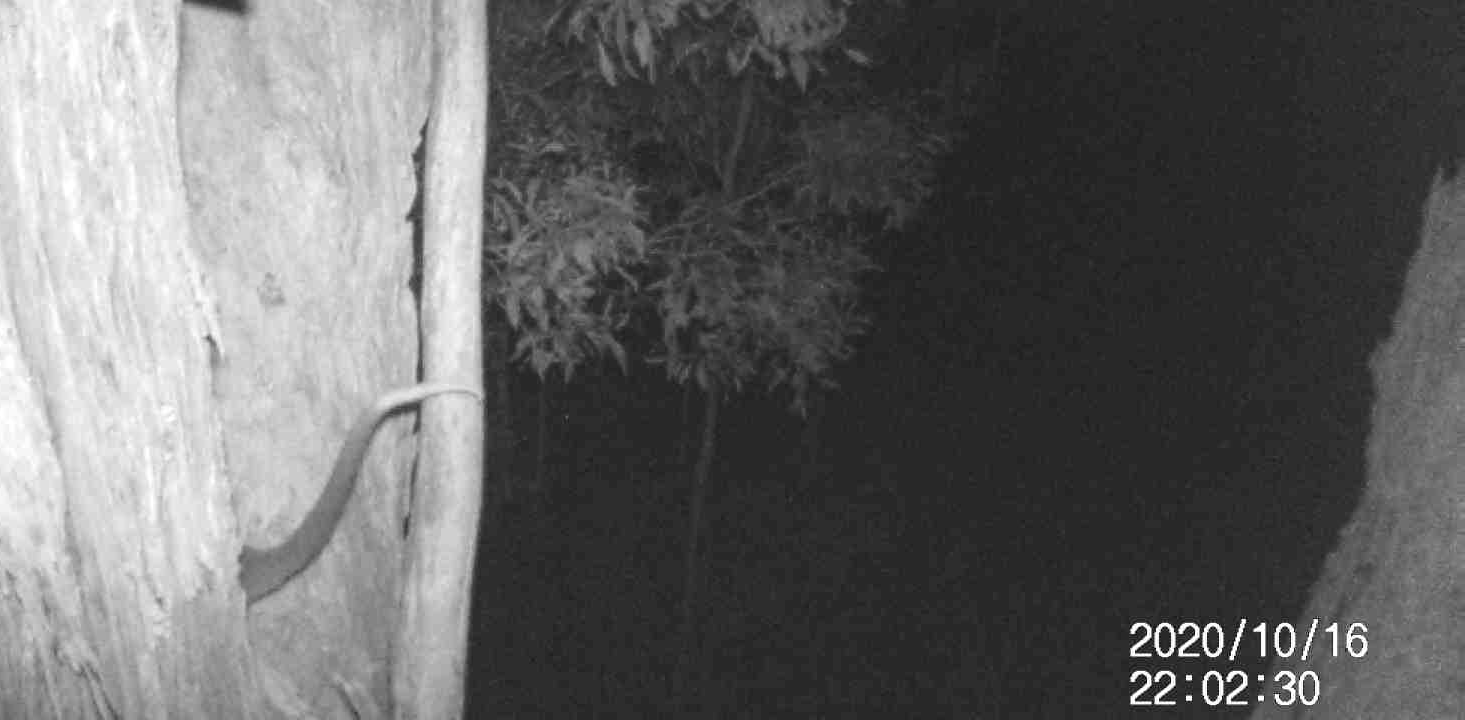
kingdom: Animalia
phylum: Chordata
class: Mammalia
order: Diprotodontia
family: Pseudocheiridae
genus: Pseudocheirus
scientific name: Pseudocheirus peregrinus
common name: Common ringtail possum
